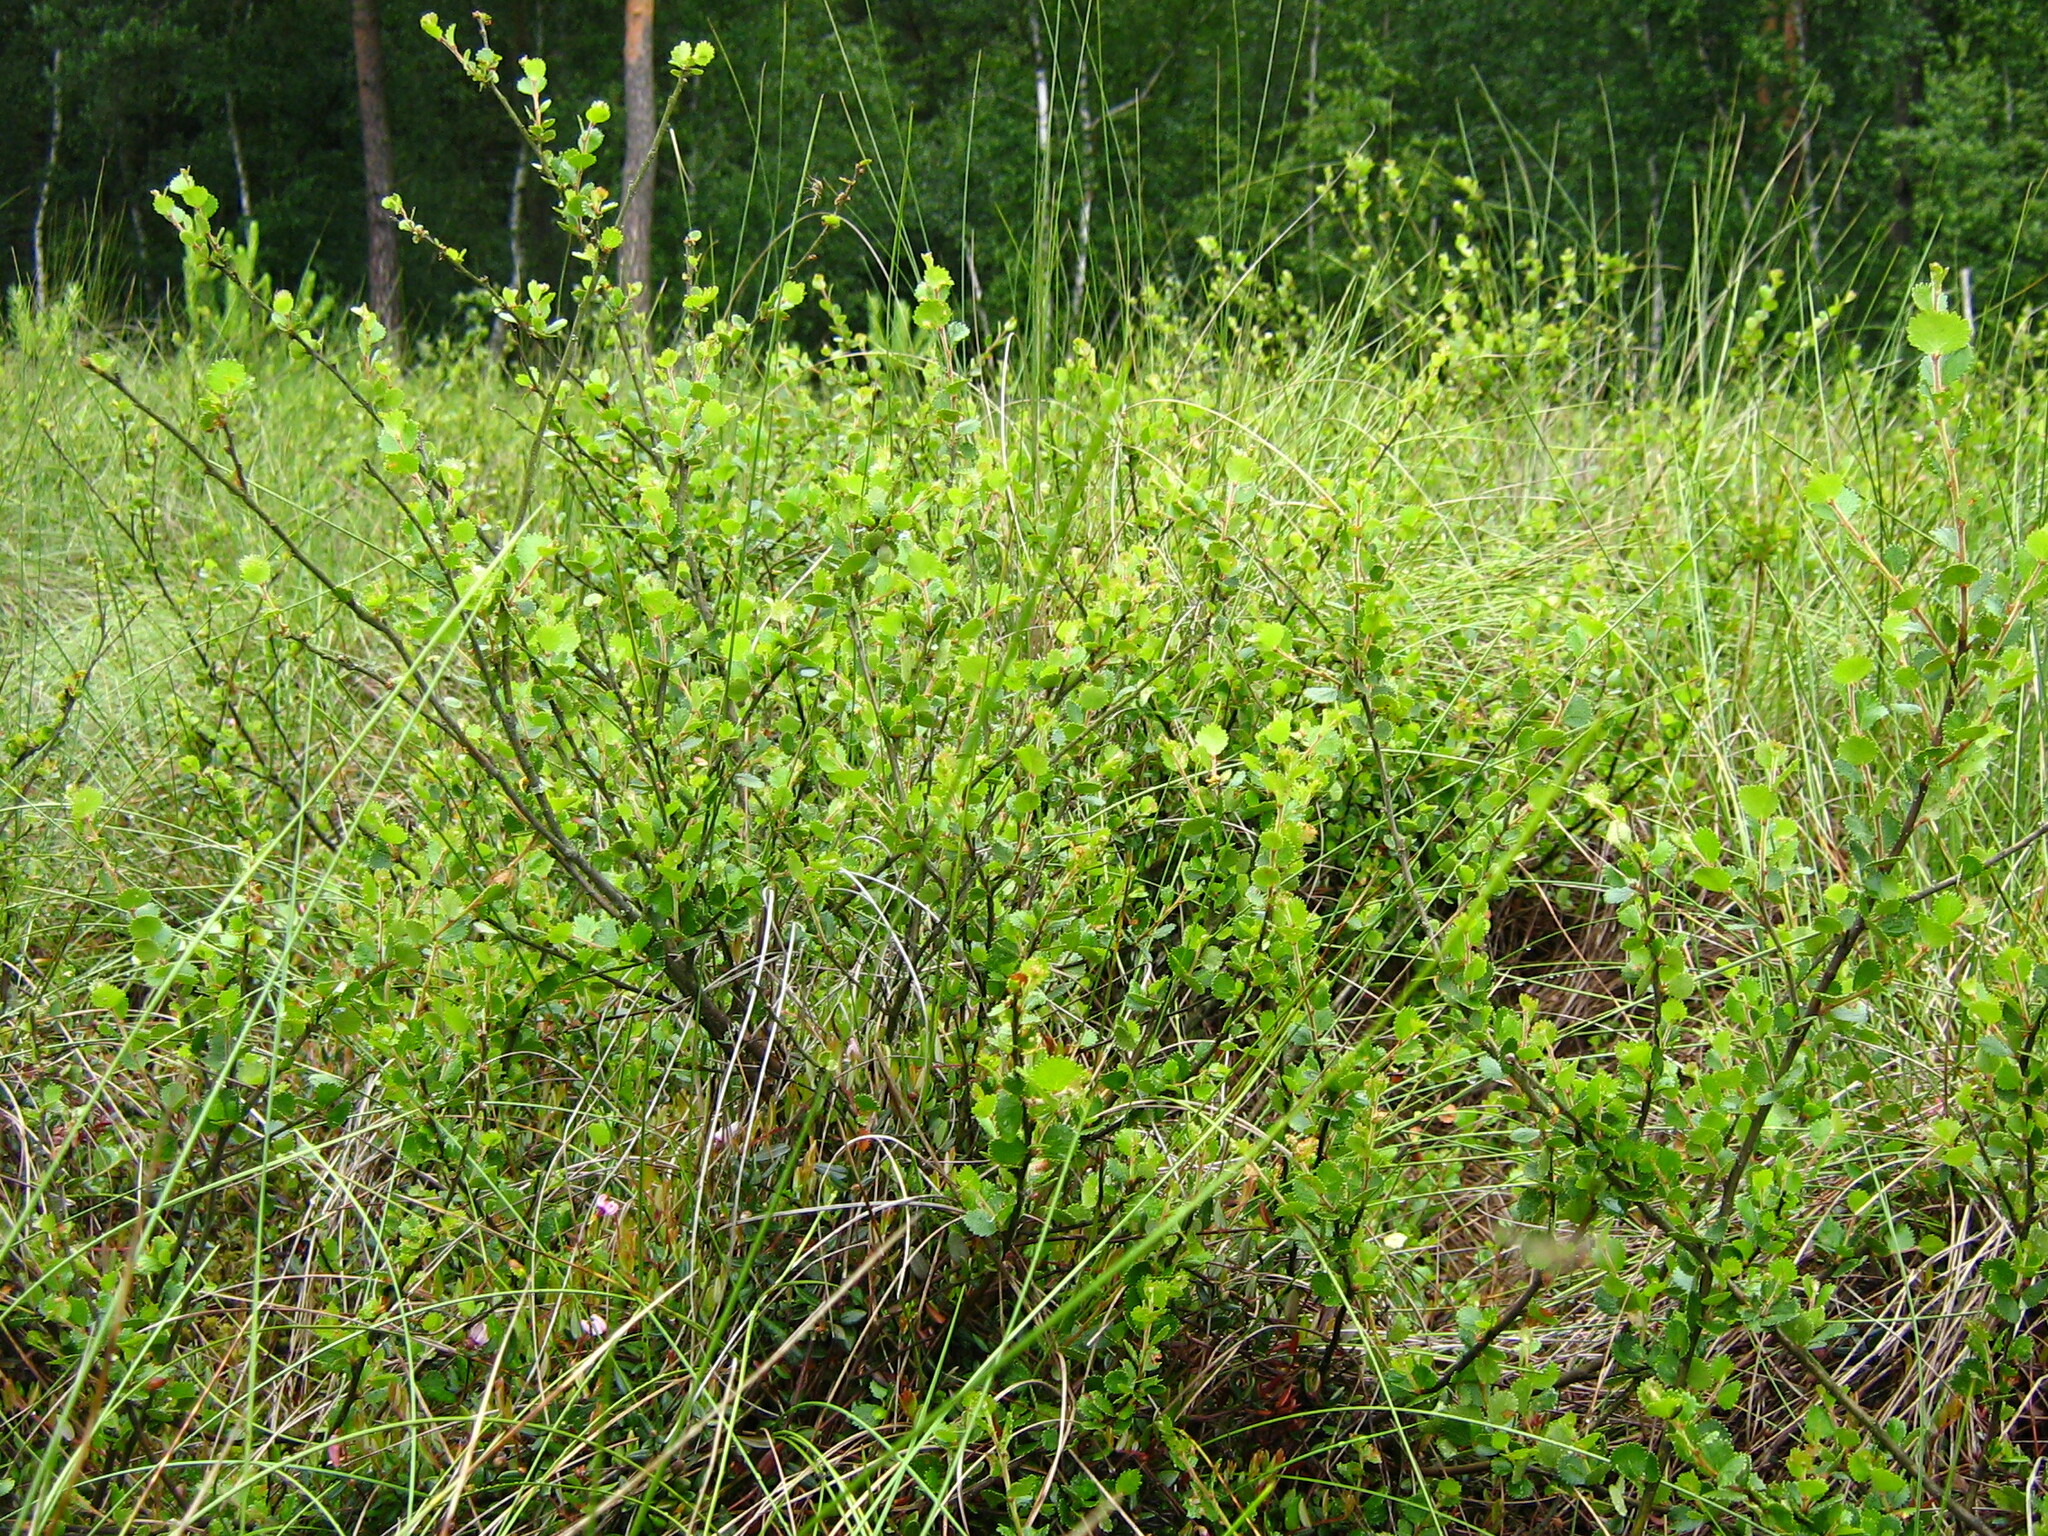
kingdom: Plantae
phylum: Tracheophyta
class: Magnoliopsida
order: Fagales
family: Betulaceae
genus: Betula
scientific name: Betula nana
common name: Arctic dwarf birch
